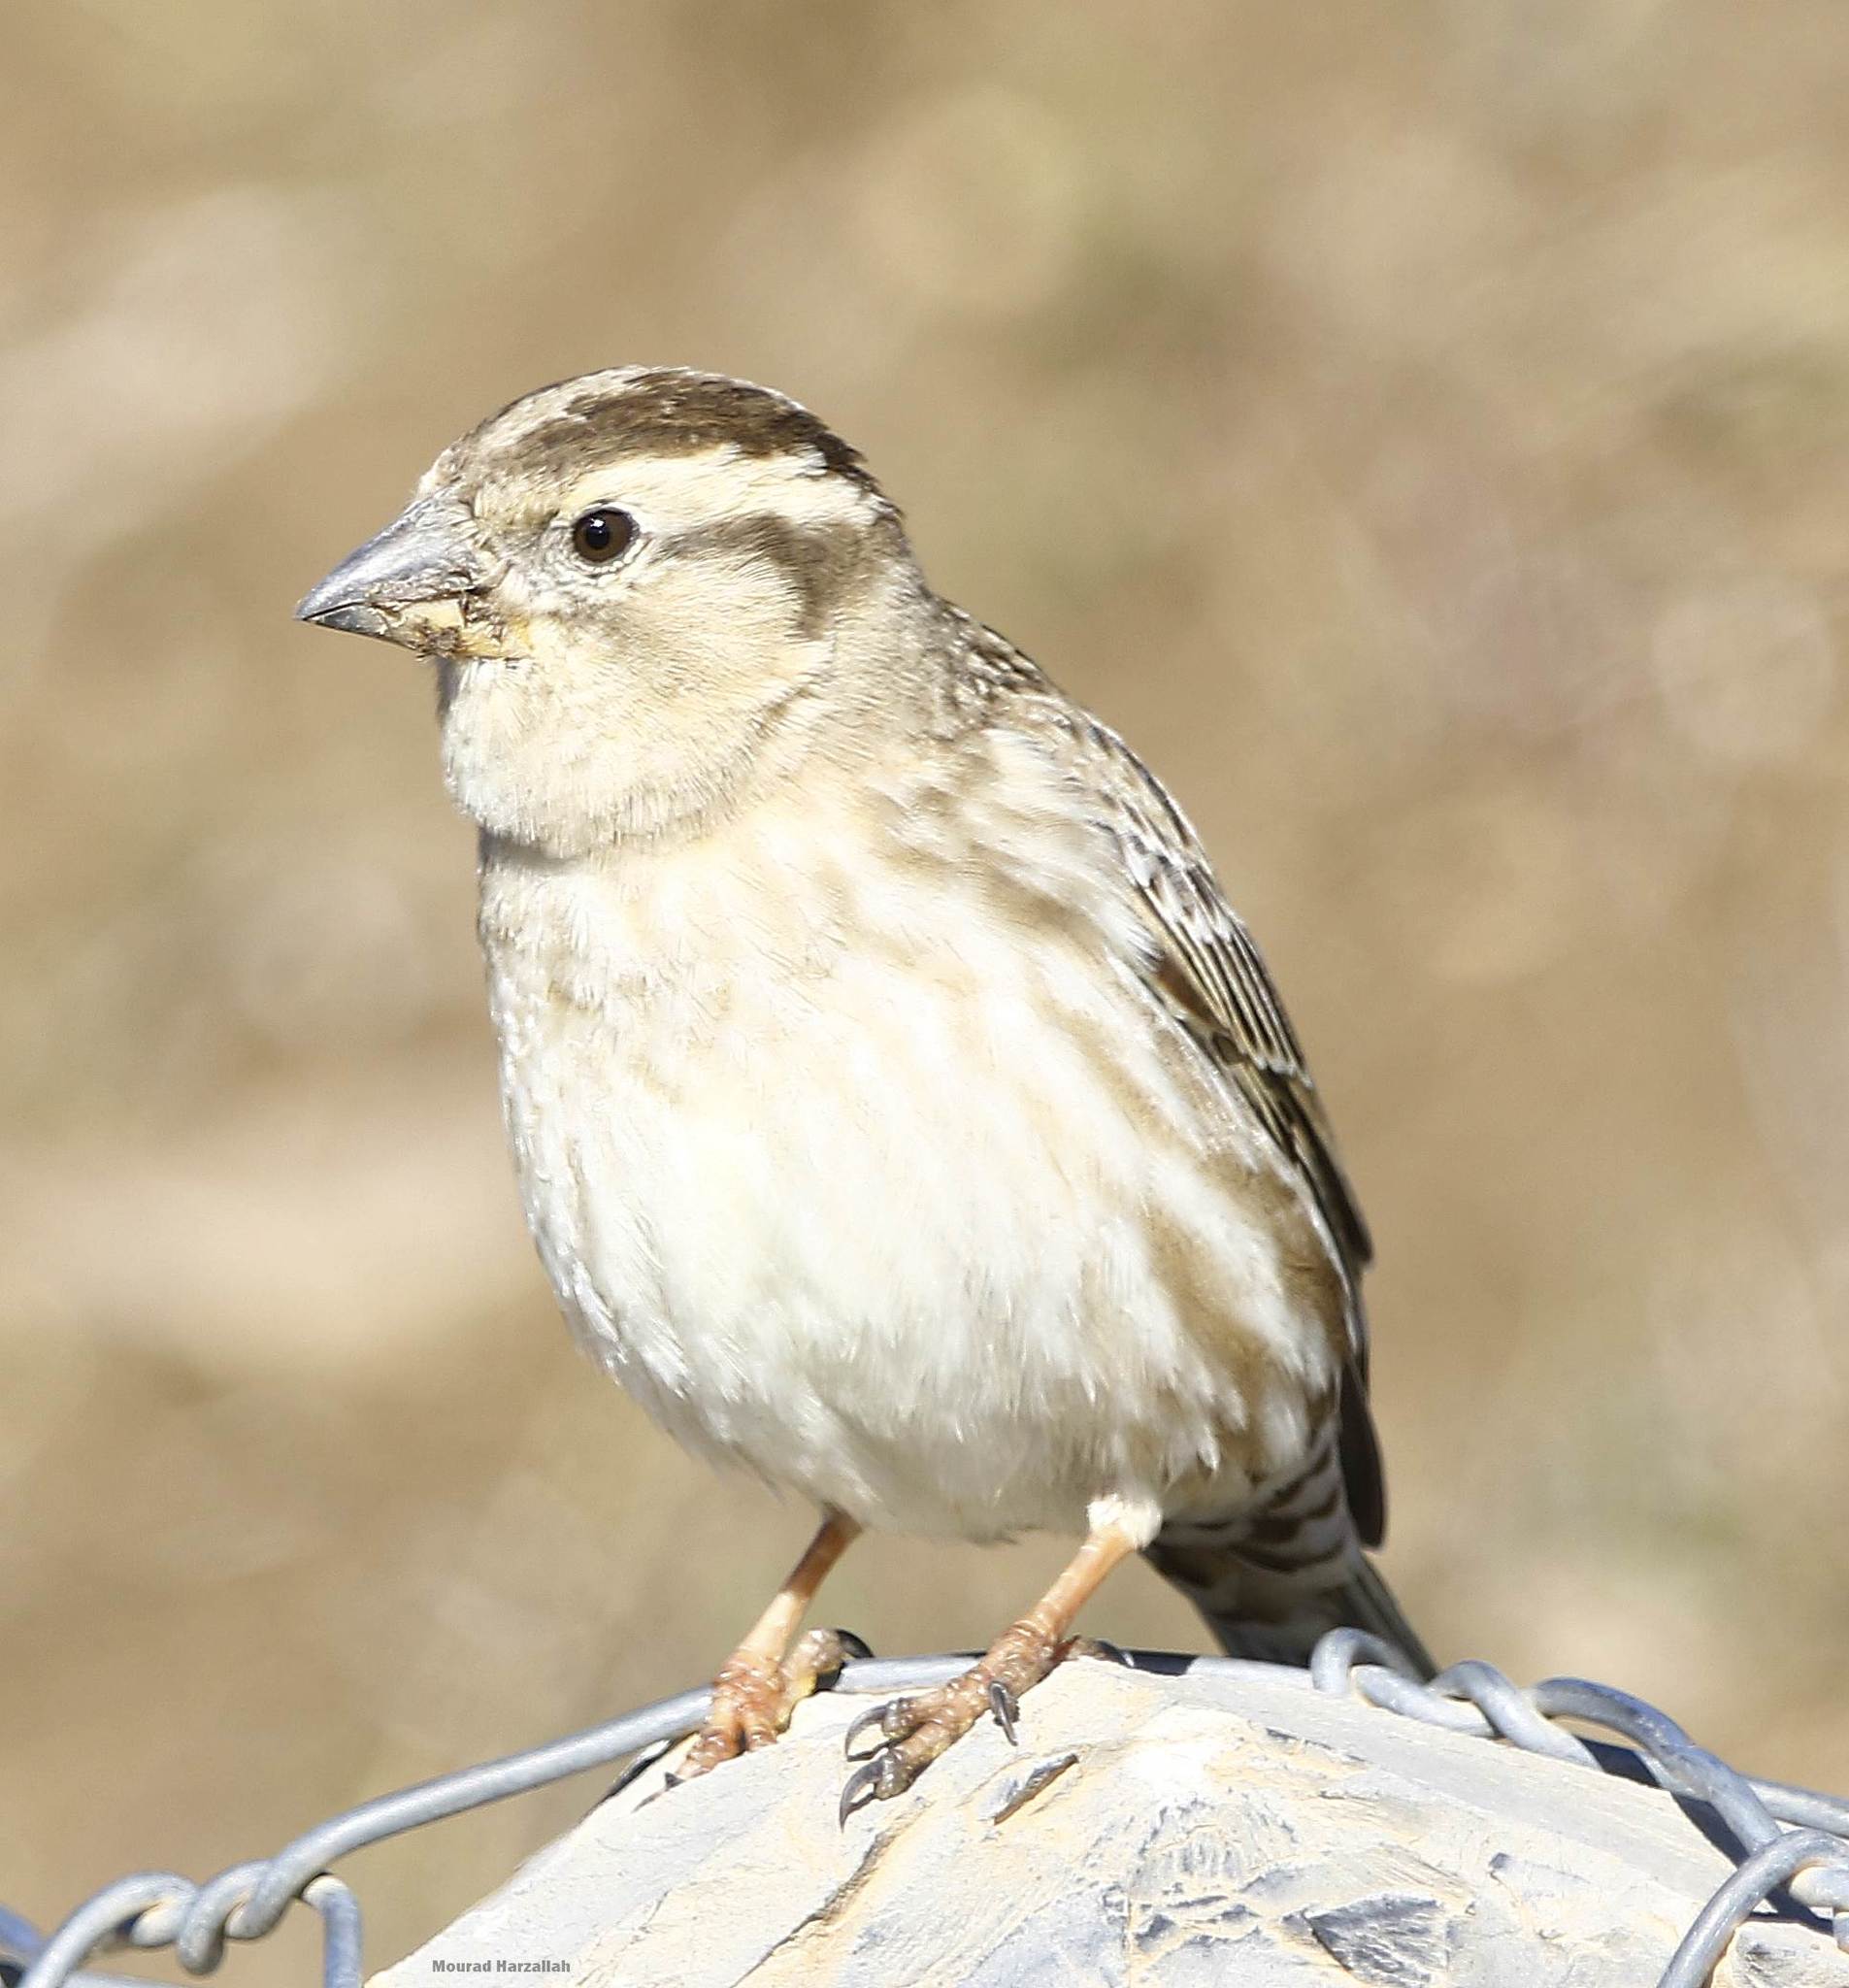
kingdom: Animalia
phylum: Chordata
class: Aves
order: Passeriformes
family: Passeridae
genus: Petronia
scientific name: Petronia petronia
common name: Rock sparrow
